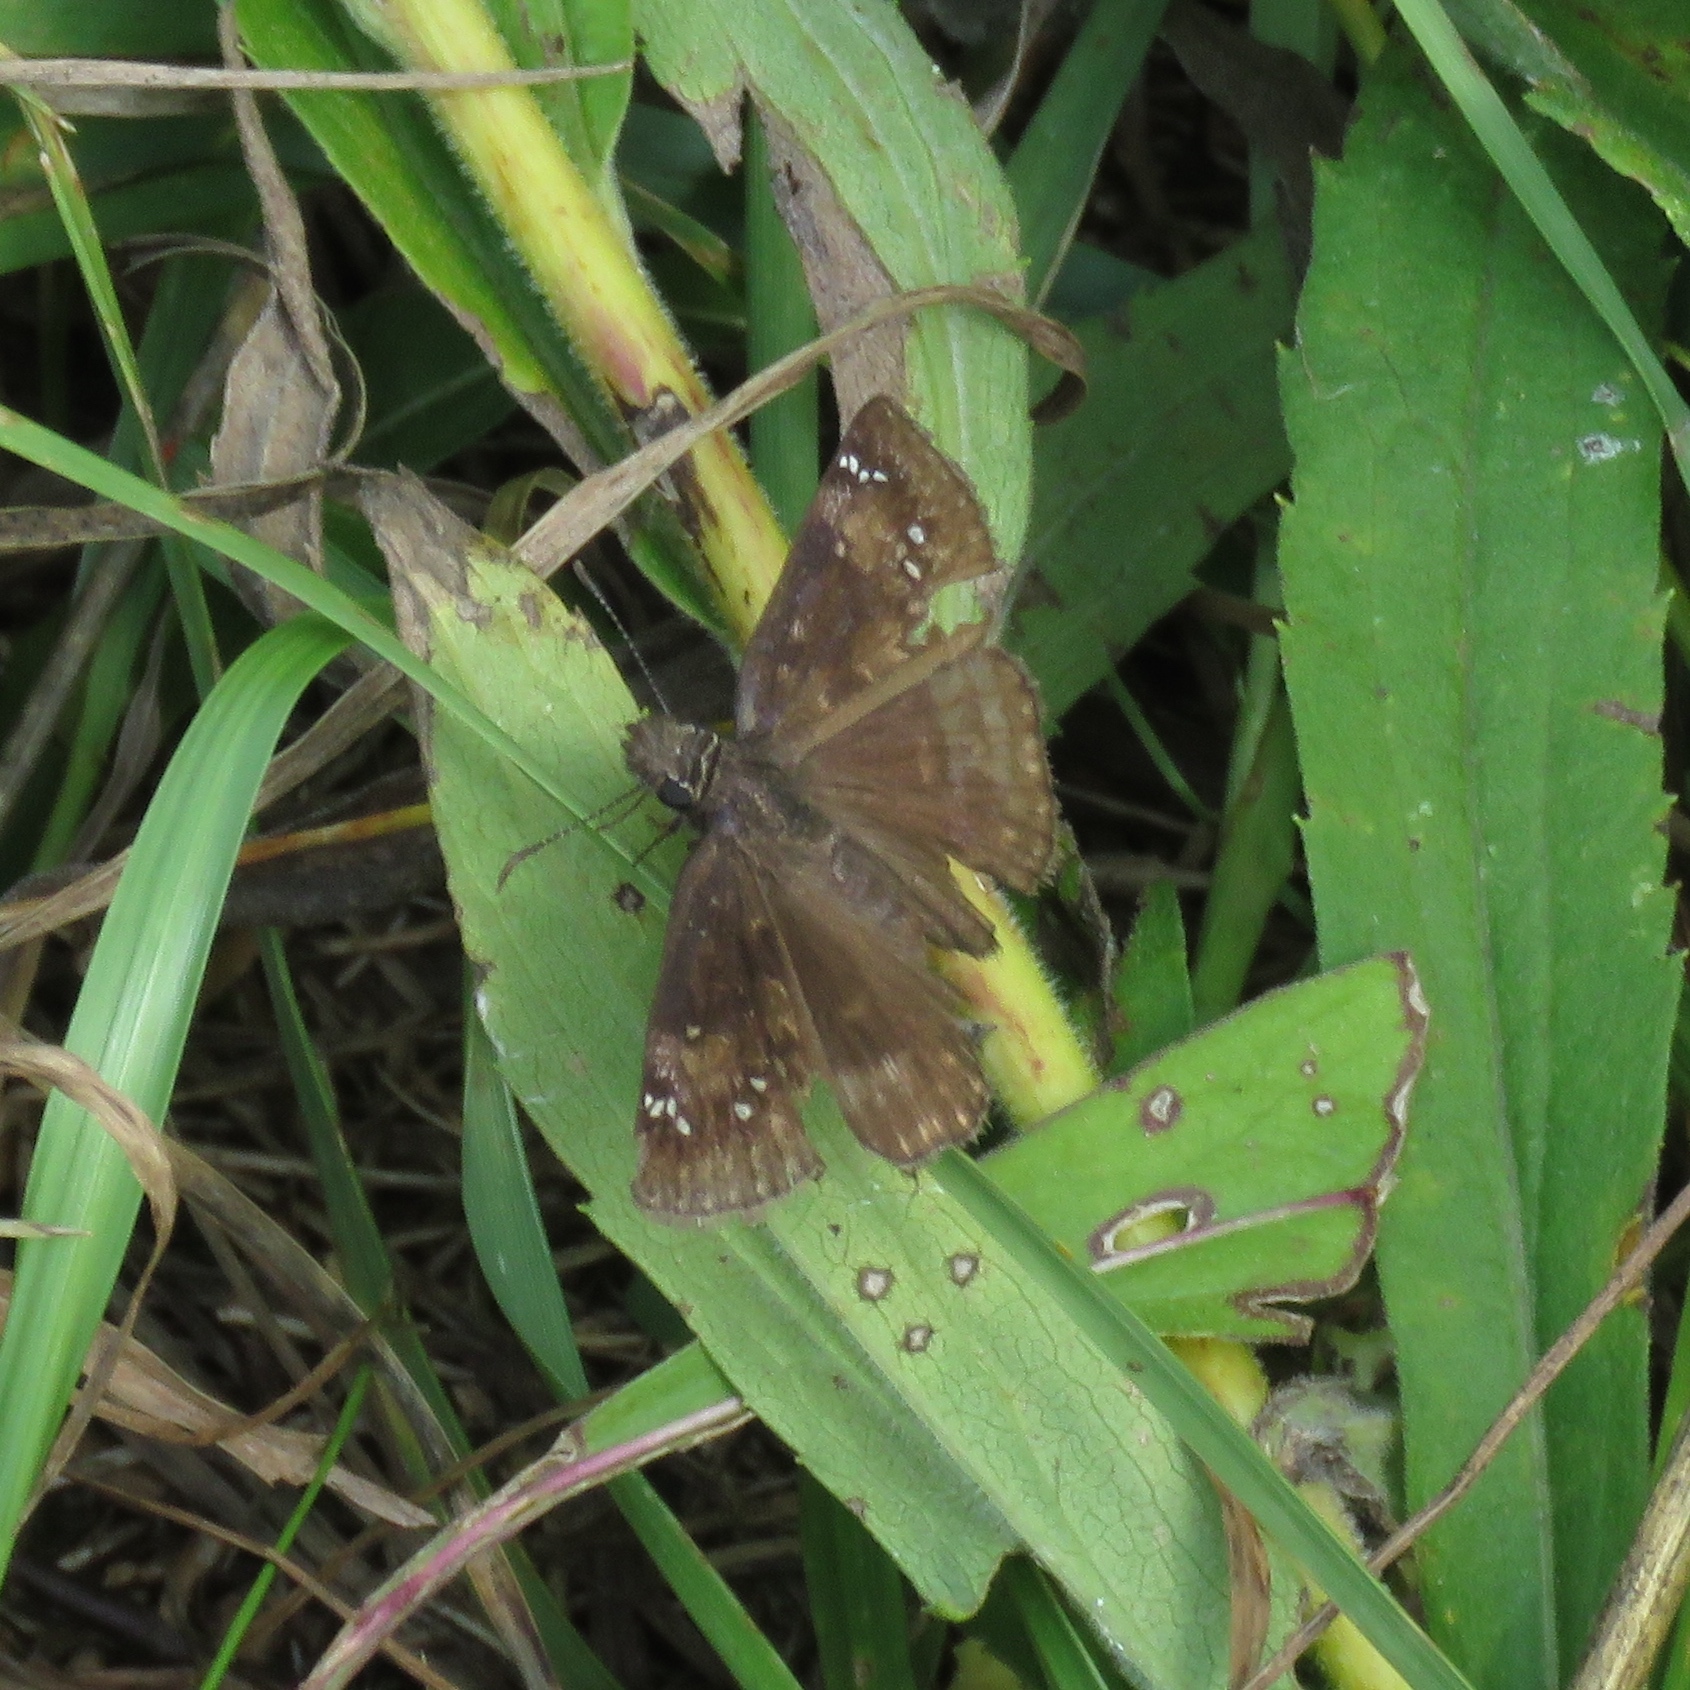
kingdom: Animalia
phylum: Arthropoda
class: Insecta
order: Lepidoptera
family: Hesperiidae
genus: Erynnis
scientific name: Erynnis baptisiae
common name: Wild indigo duskywing
